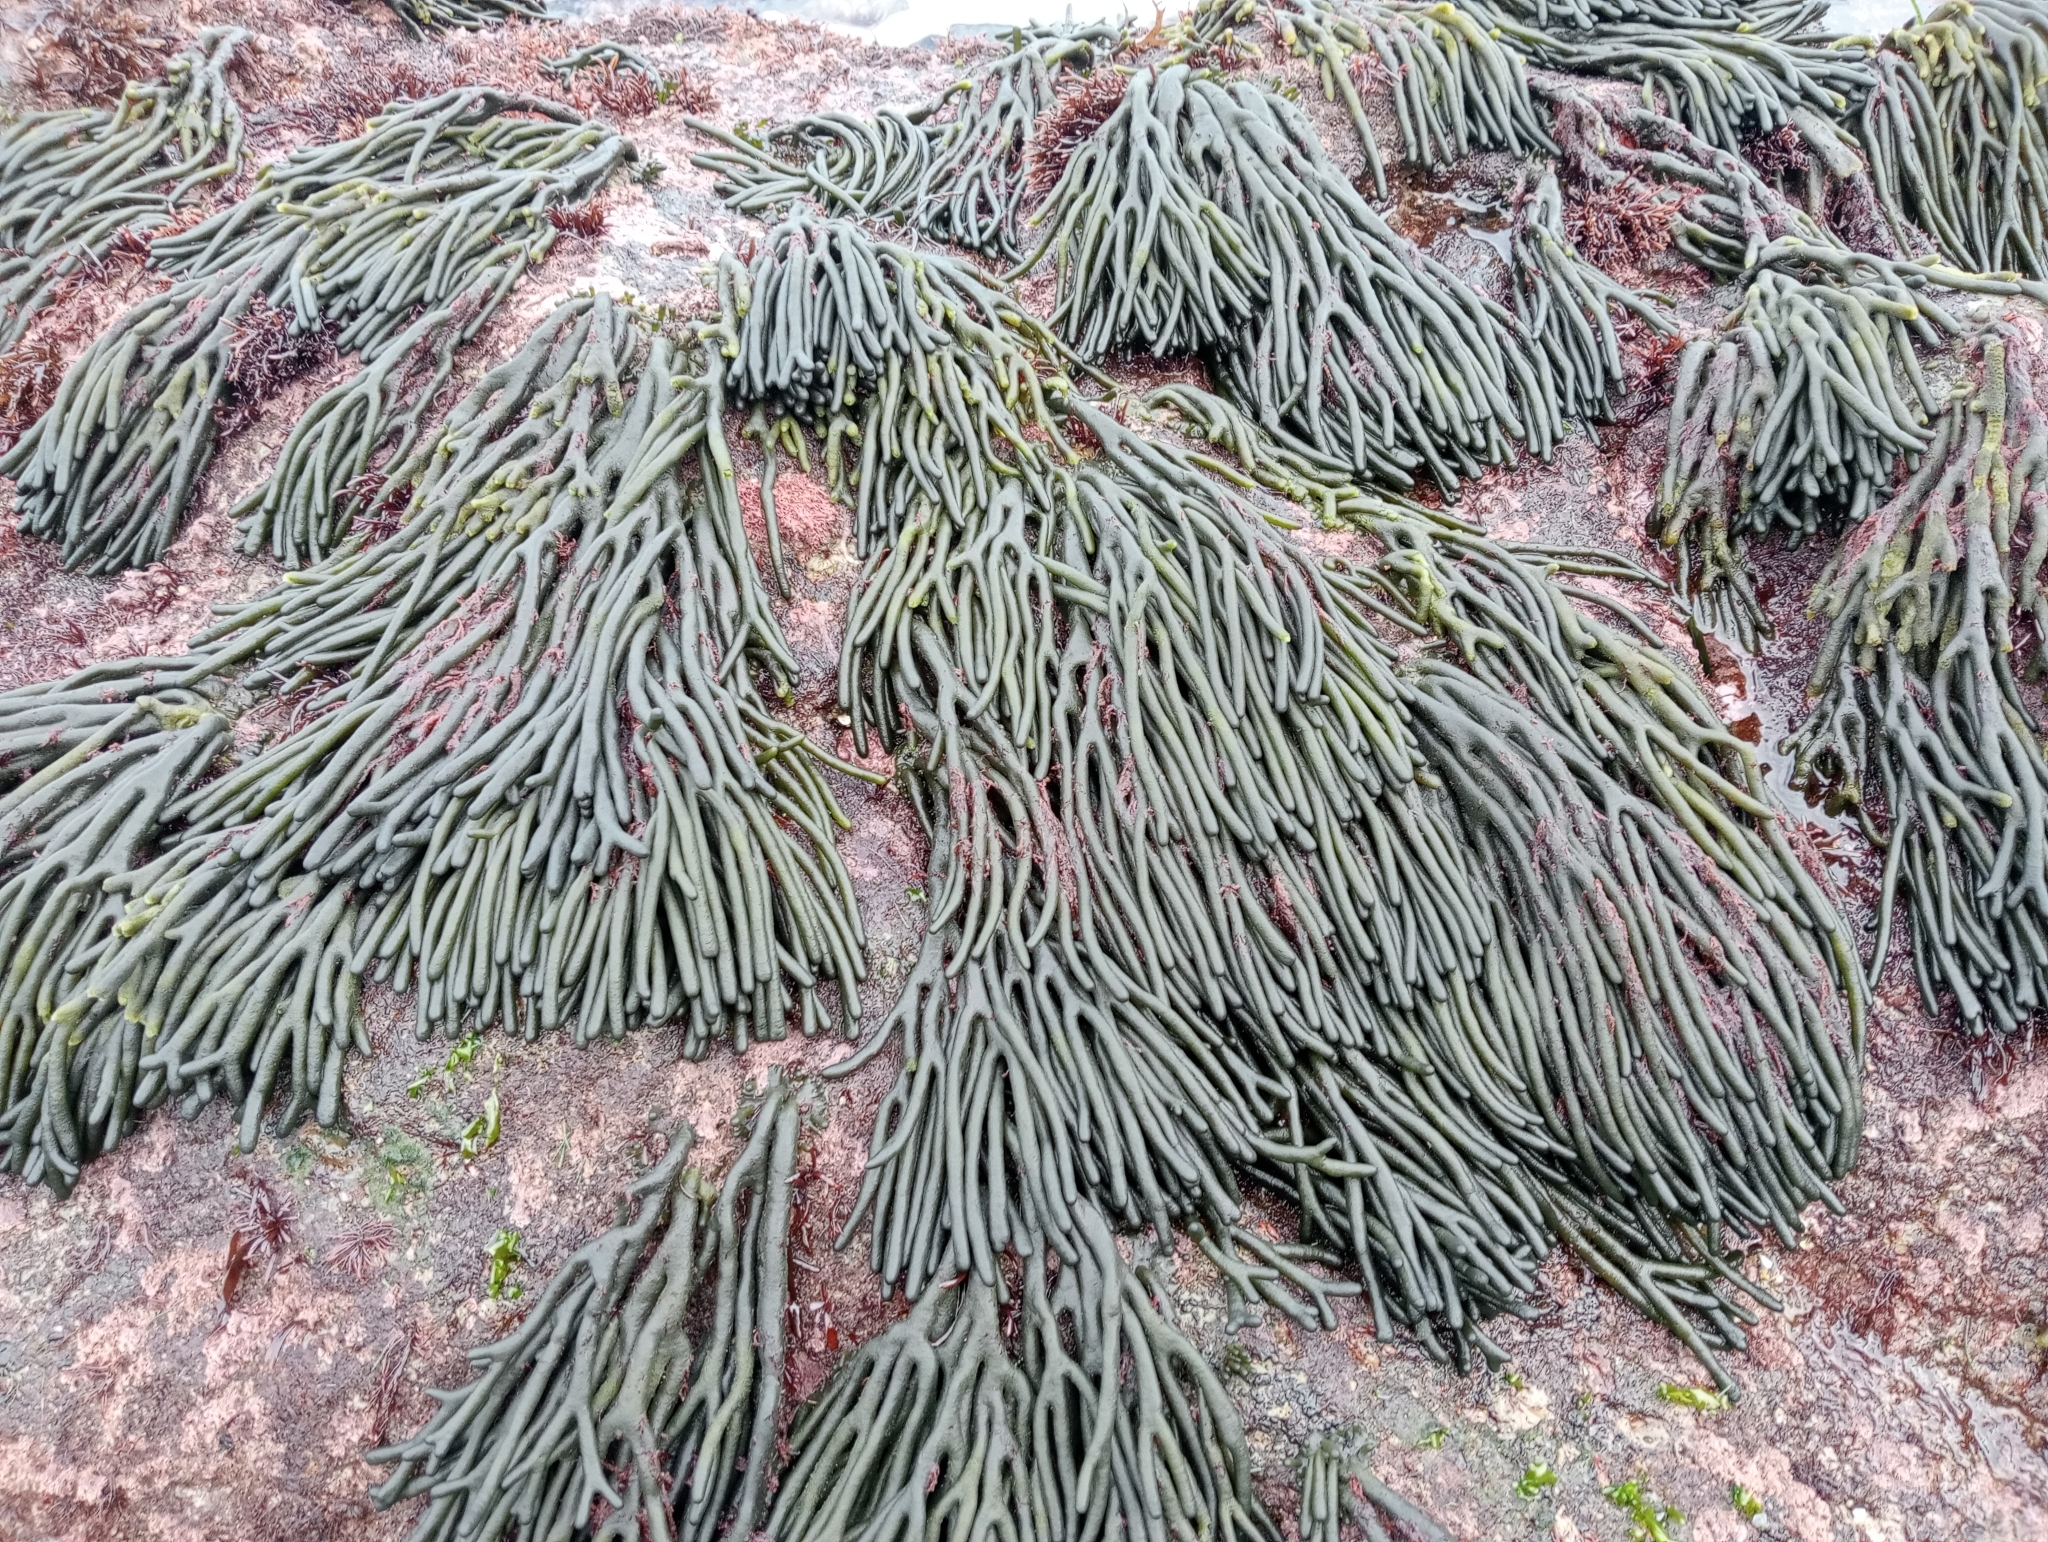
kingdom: Plantae
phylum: Chlorophyta
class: Ulvophyceae
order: Bryopsidales
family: Codiaceae
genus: Codium
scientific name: Codium fragile
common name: Dead man's fingers
